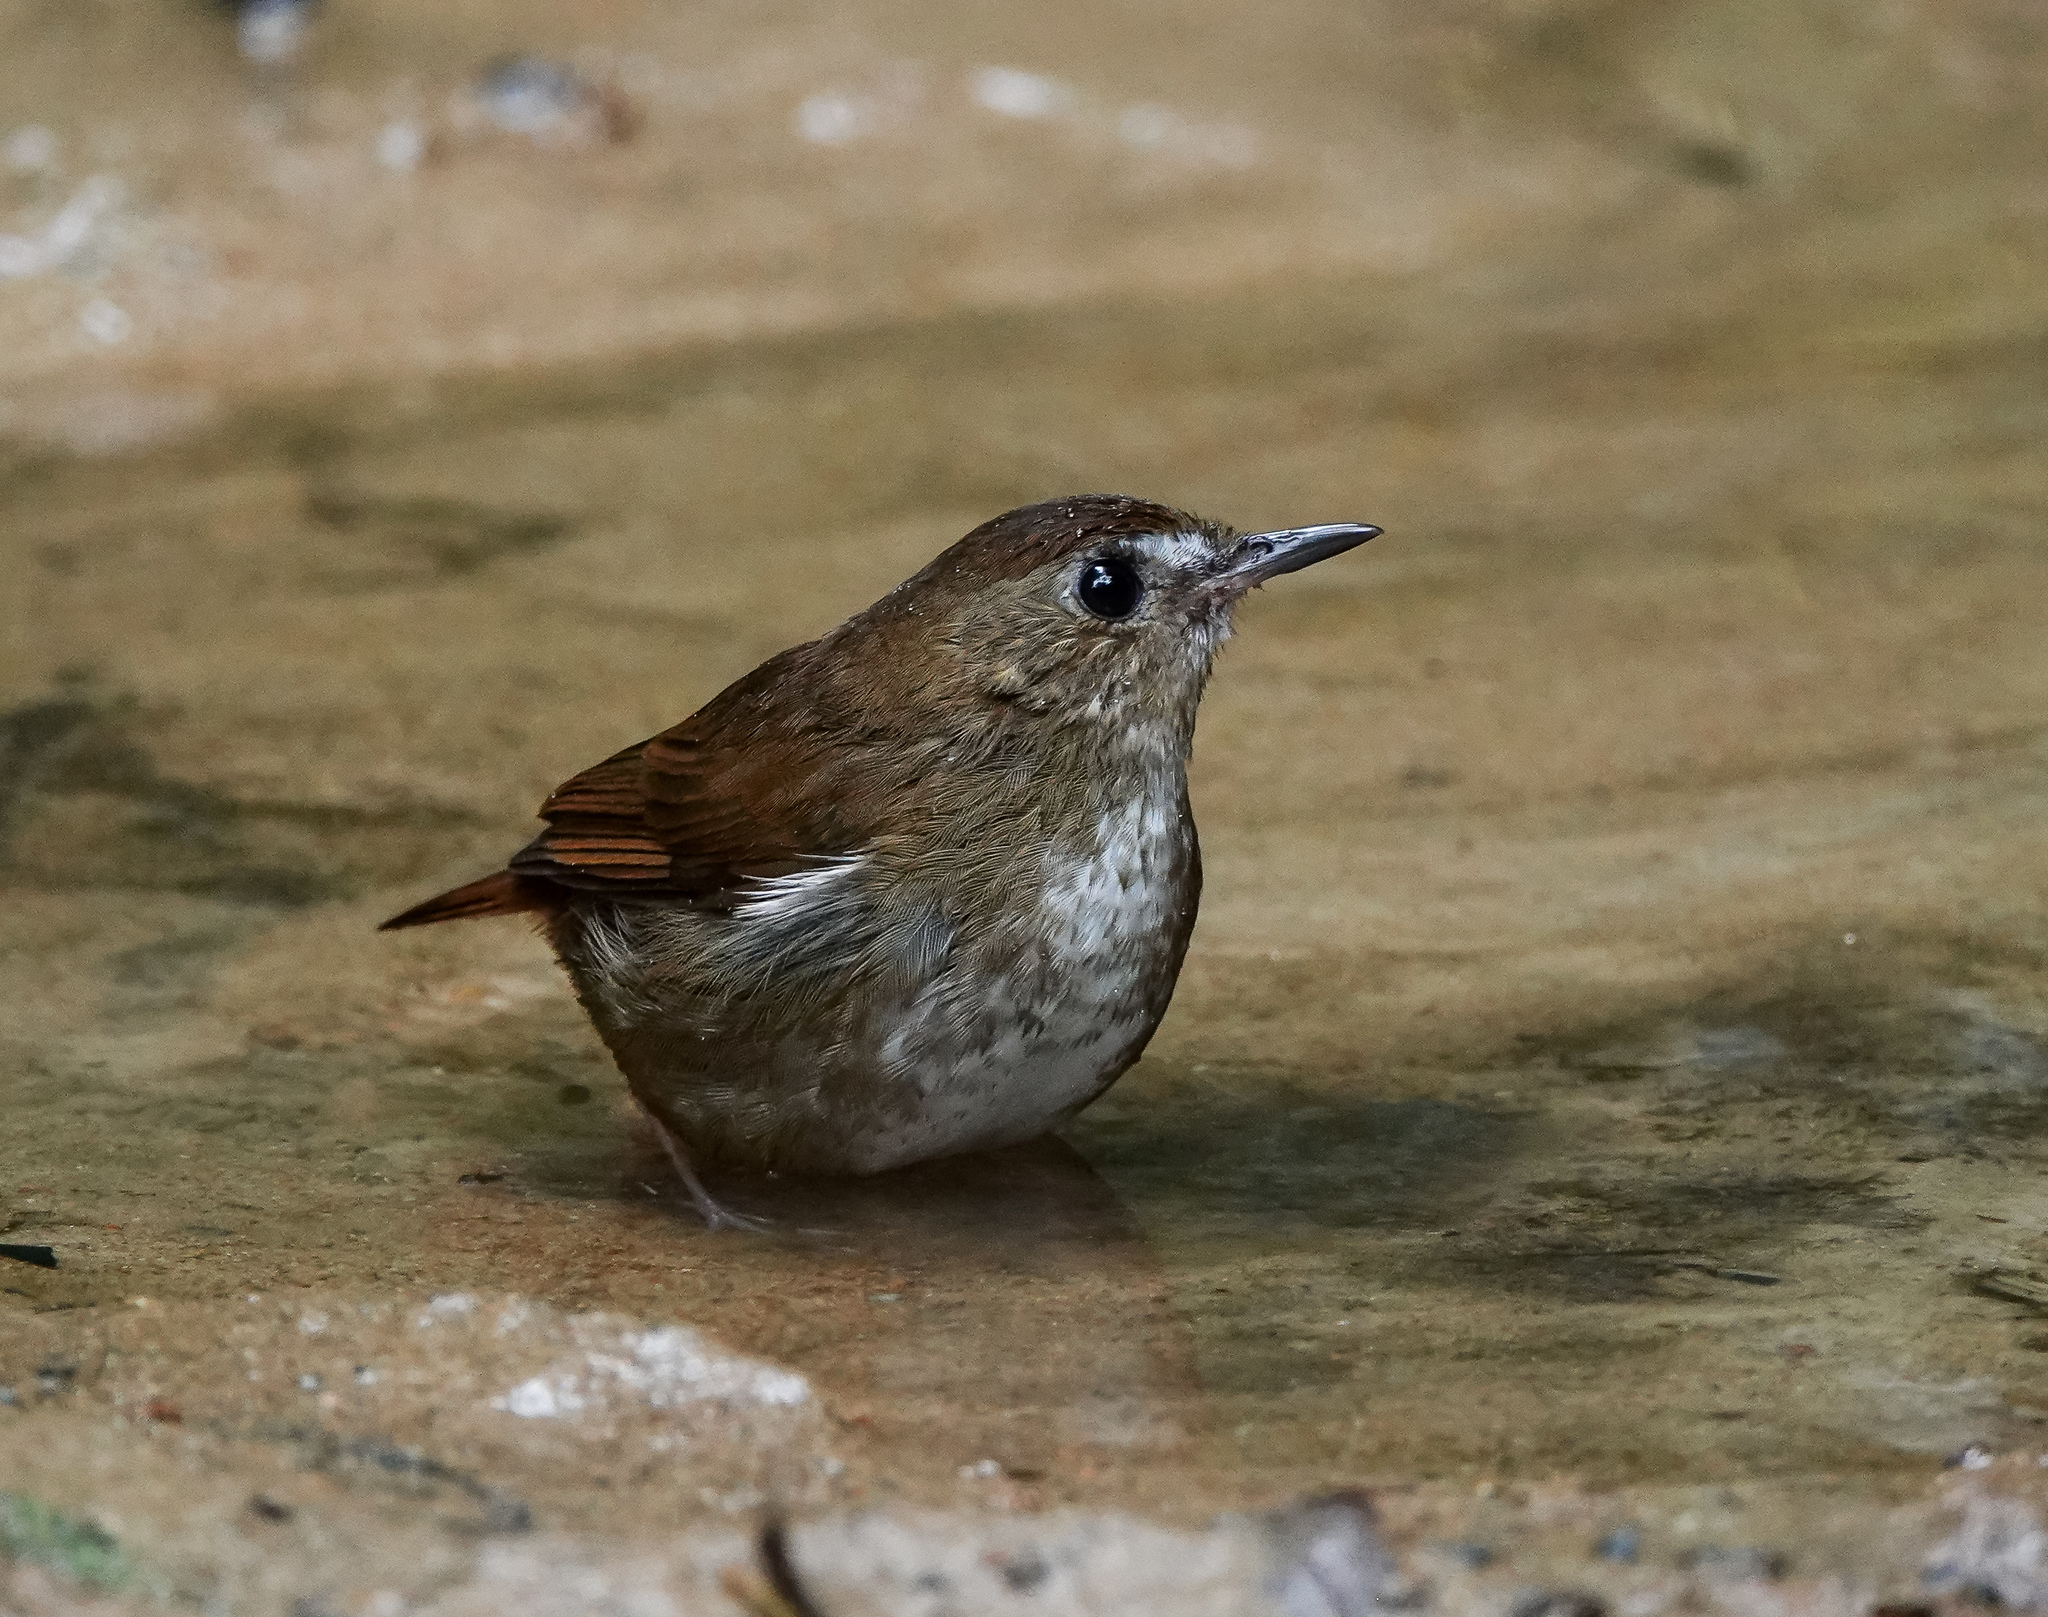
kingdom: Animalia
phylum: Chordata
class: Aves
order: Passeriformes
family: Muscicapidae
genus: Brachypteryx
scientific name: Brachypteryx leucophris
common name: Lesser shortwing
